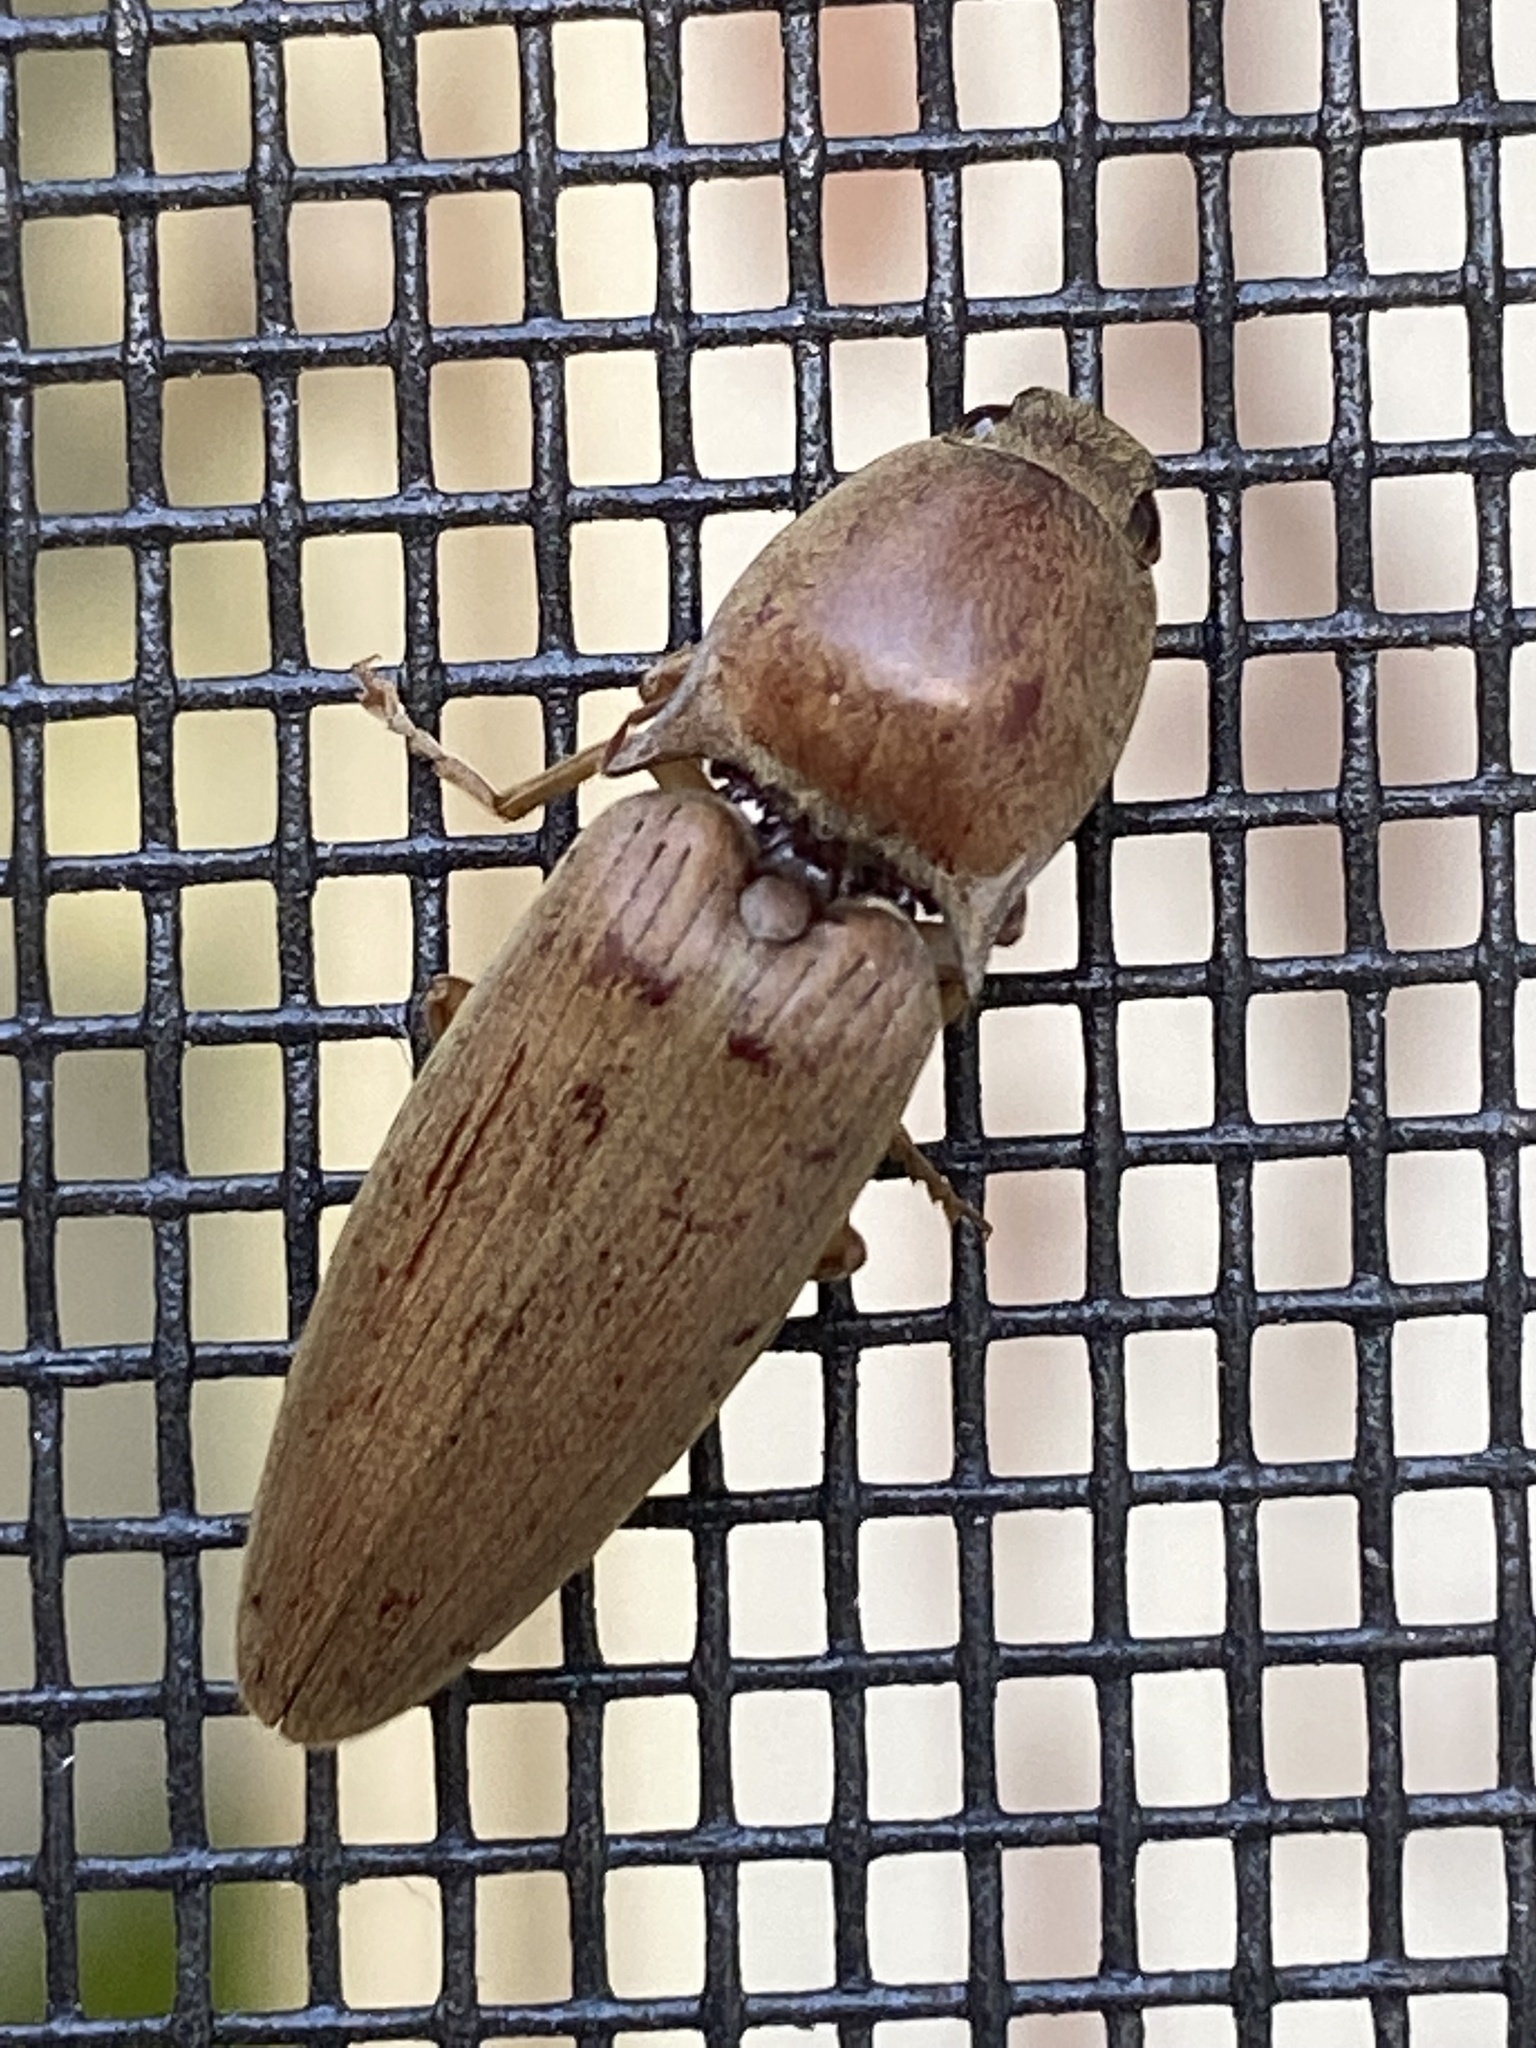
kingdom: Animalia
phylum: Arthropoda
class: Insecta
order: Coleoptera
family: Elateridae
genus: Monocrepidius
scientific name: Monocrepidius lividus
